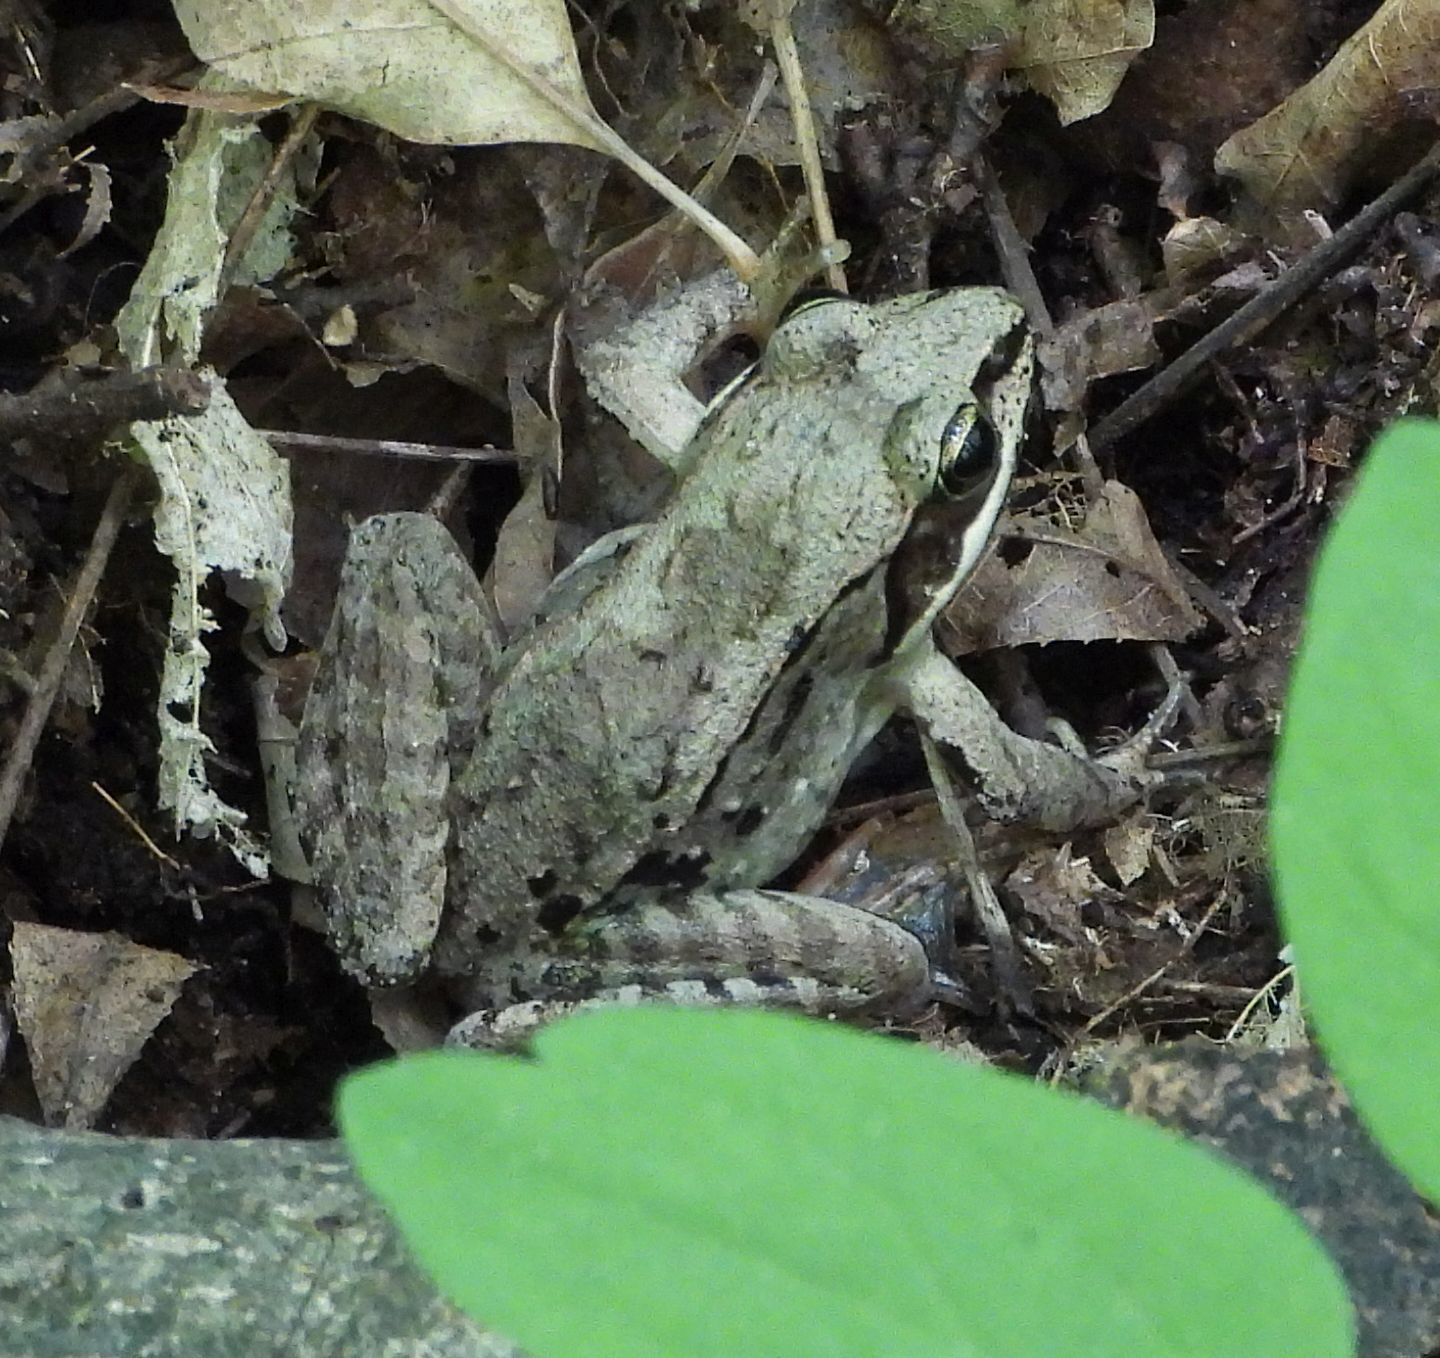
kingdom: Animalia
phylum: Chordata
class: Amphibia
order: Anura
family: Ranidae
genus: Lithobates
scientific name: Lithobates sylvaticus
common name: Wood frog
